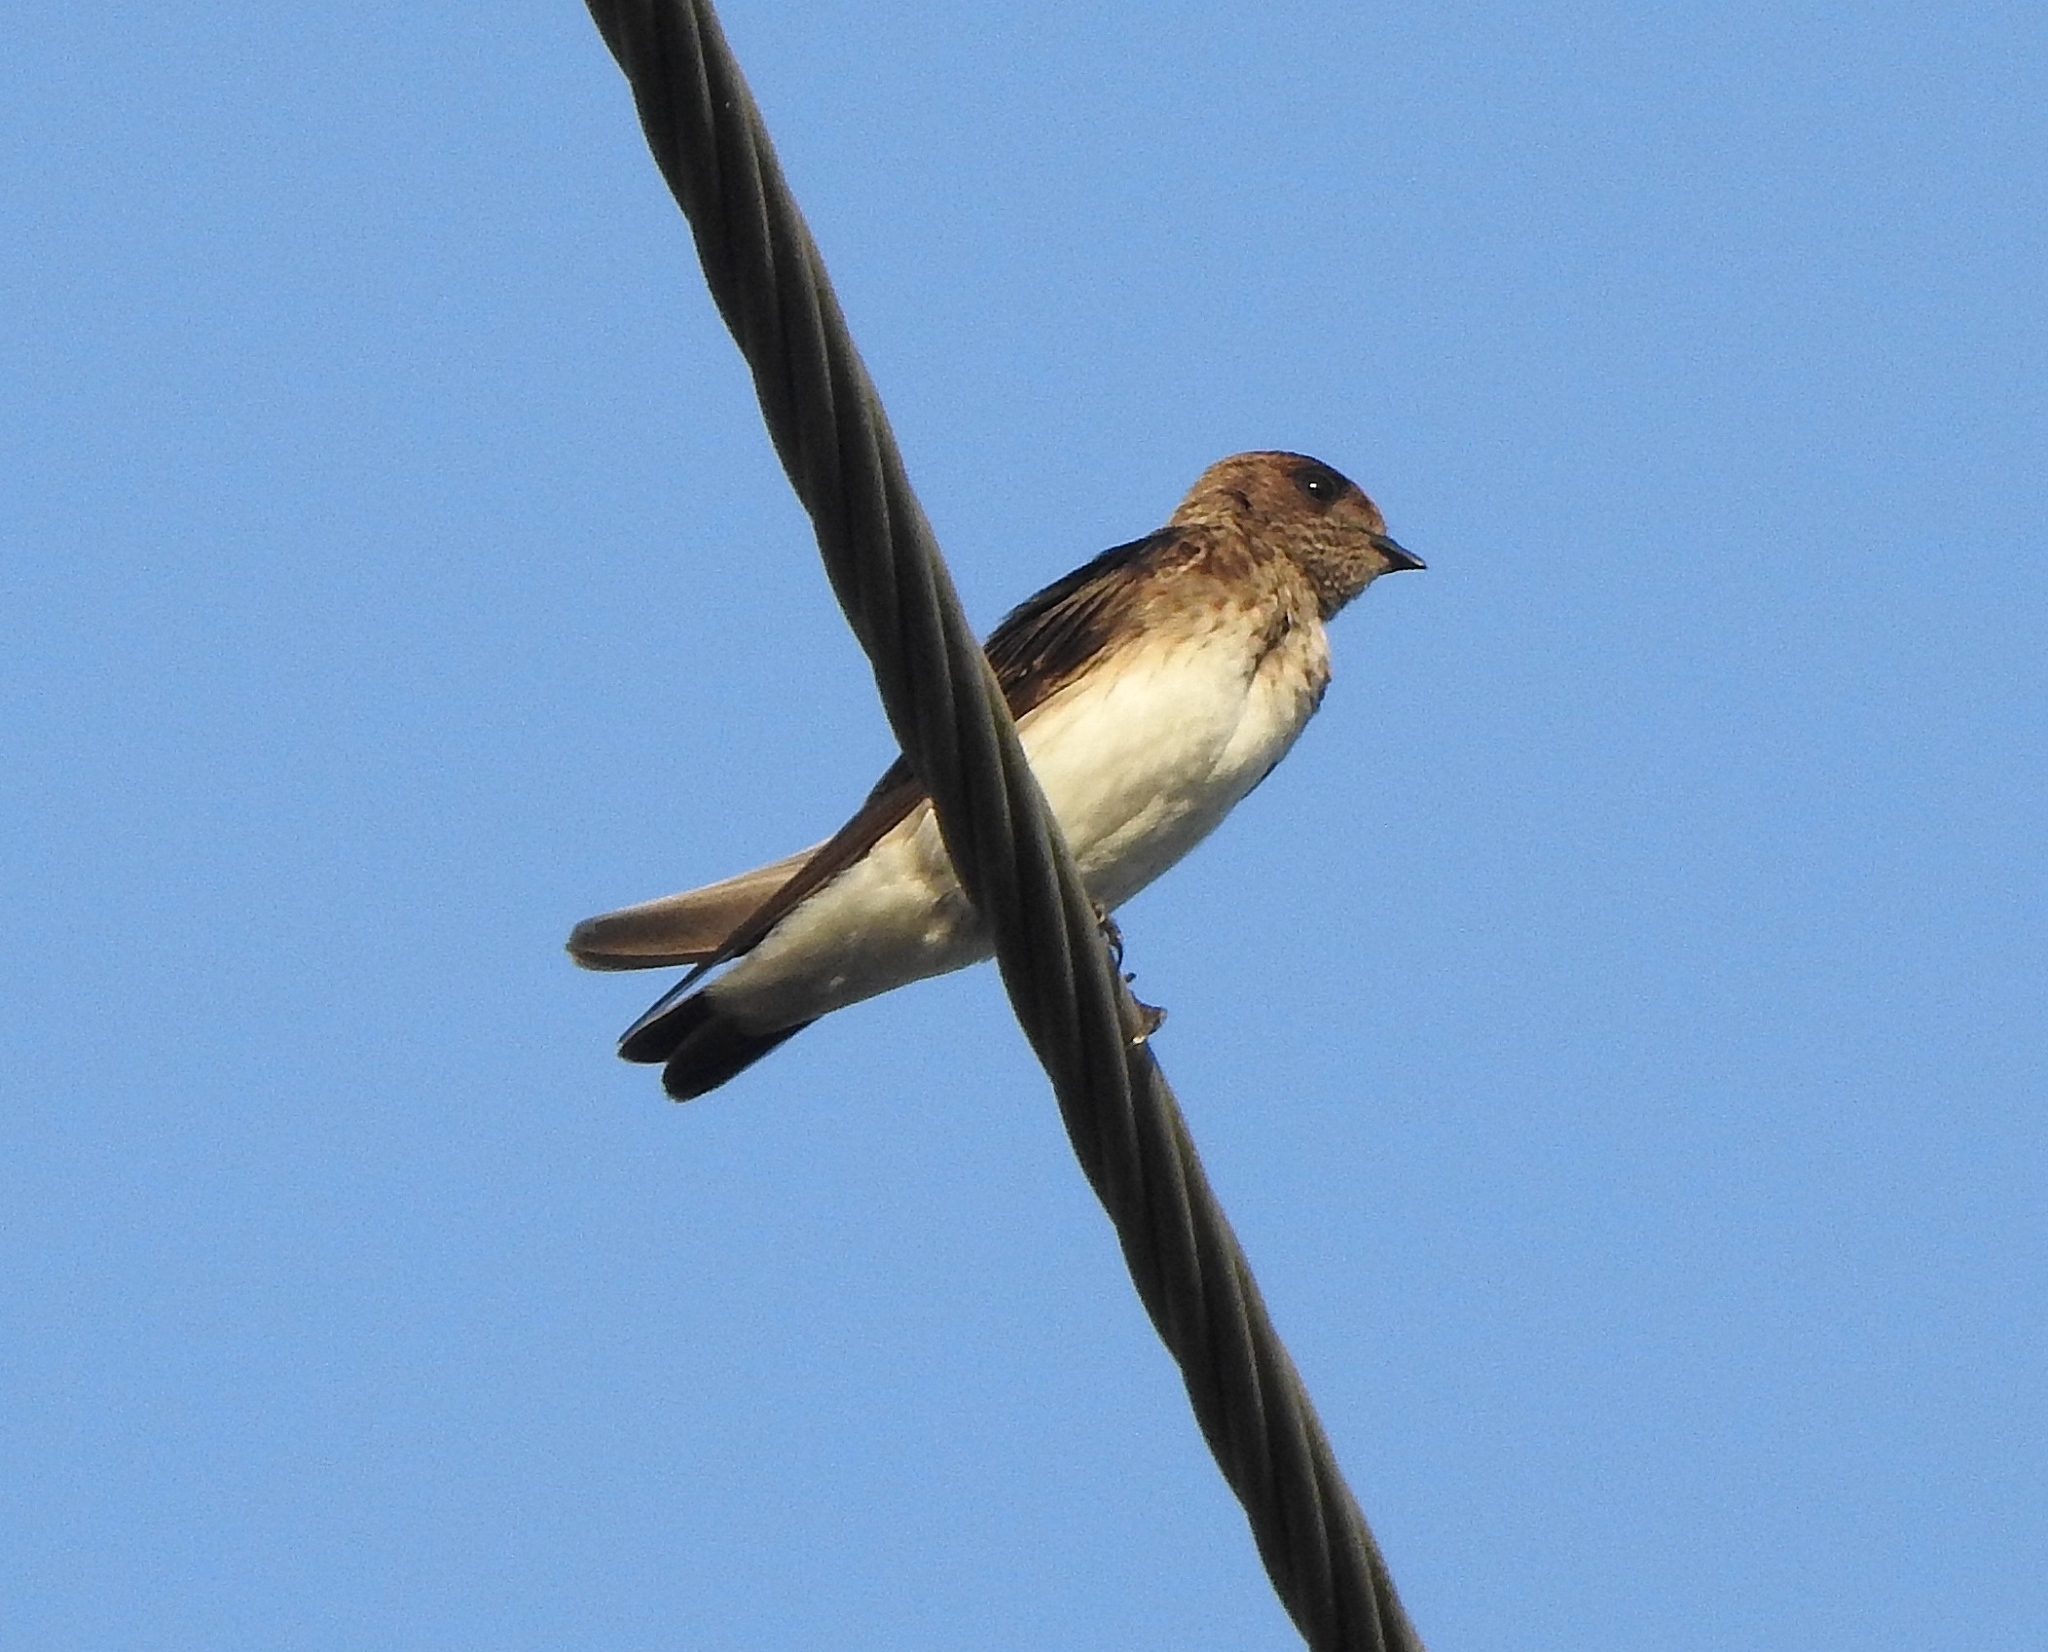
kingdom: Animalia
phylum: Chordata
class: Aves
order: Passeriformes
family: Hirundinidae
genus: Petrochelidon
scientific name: Petrochelidon fluvicola
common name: Streak-throated swallow
